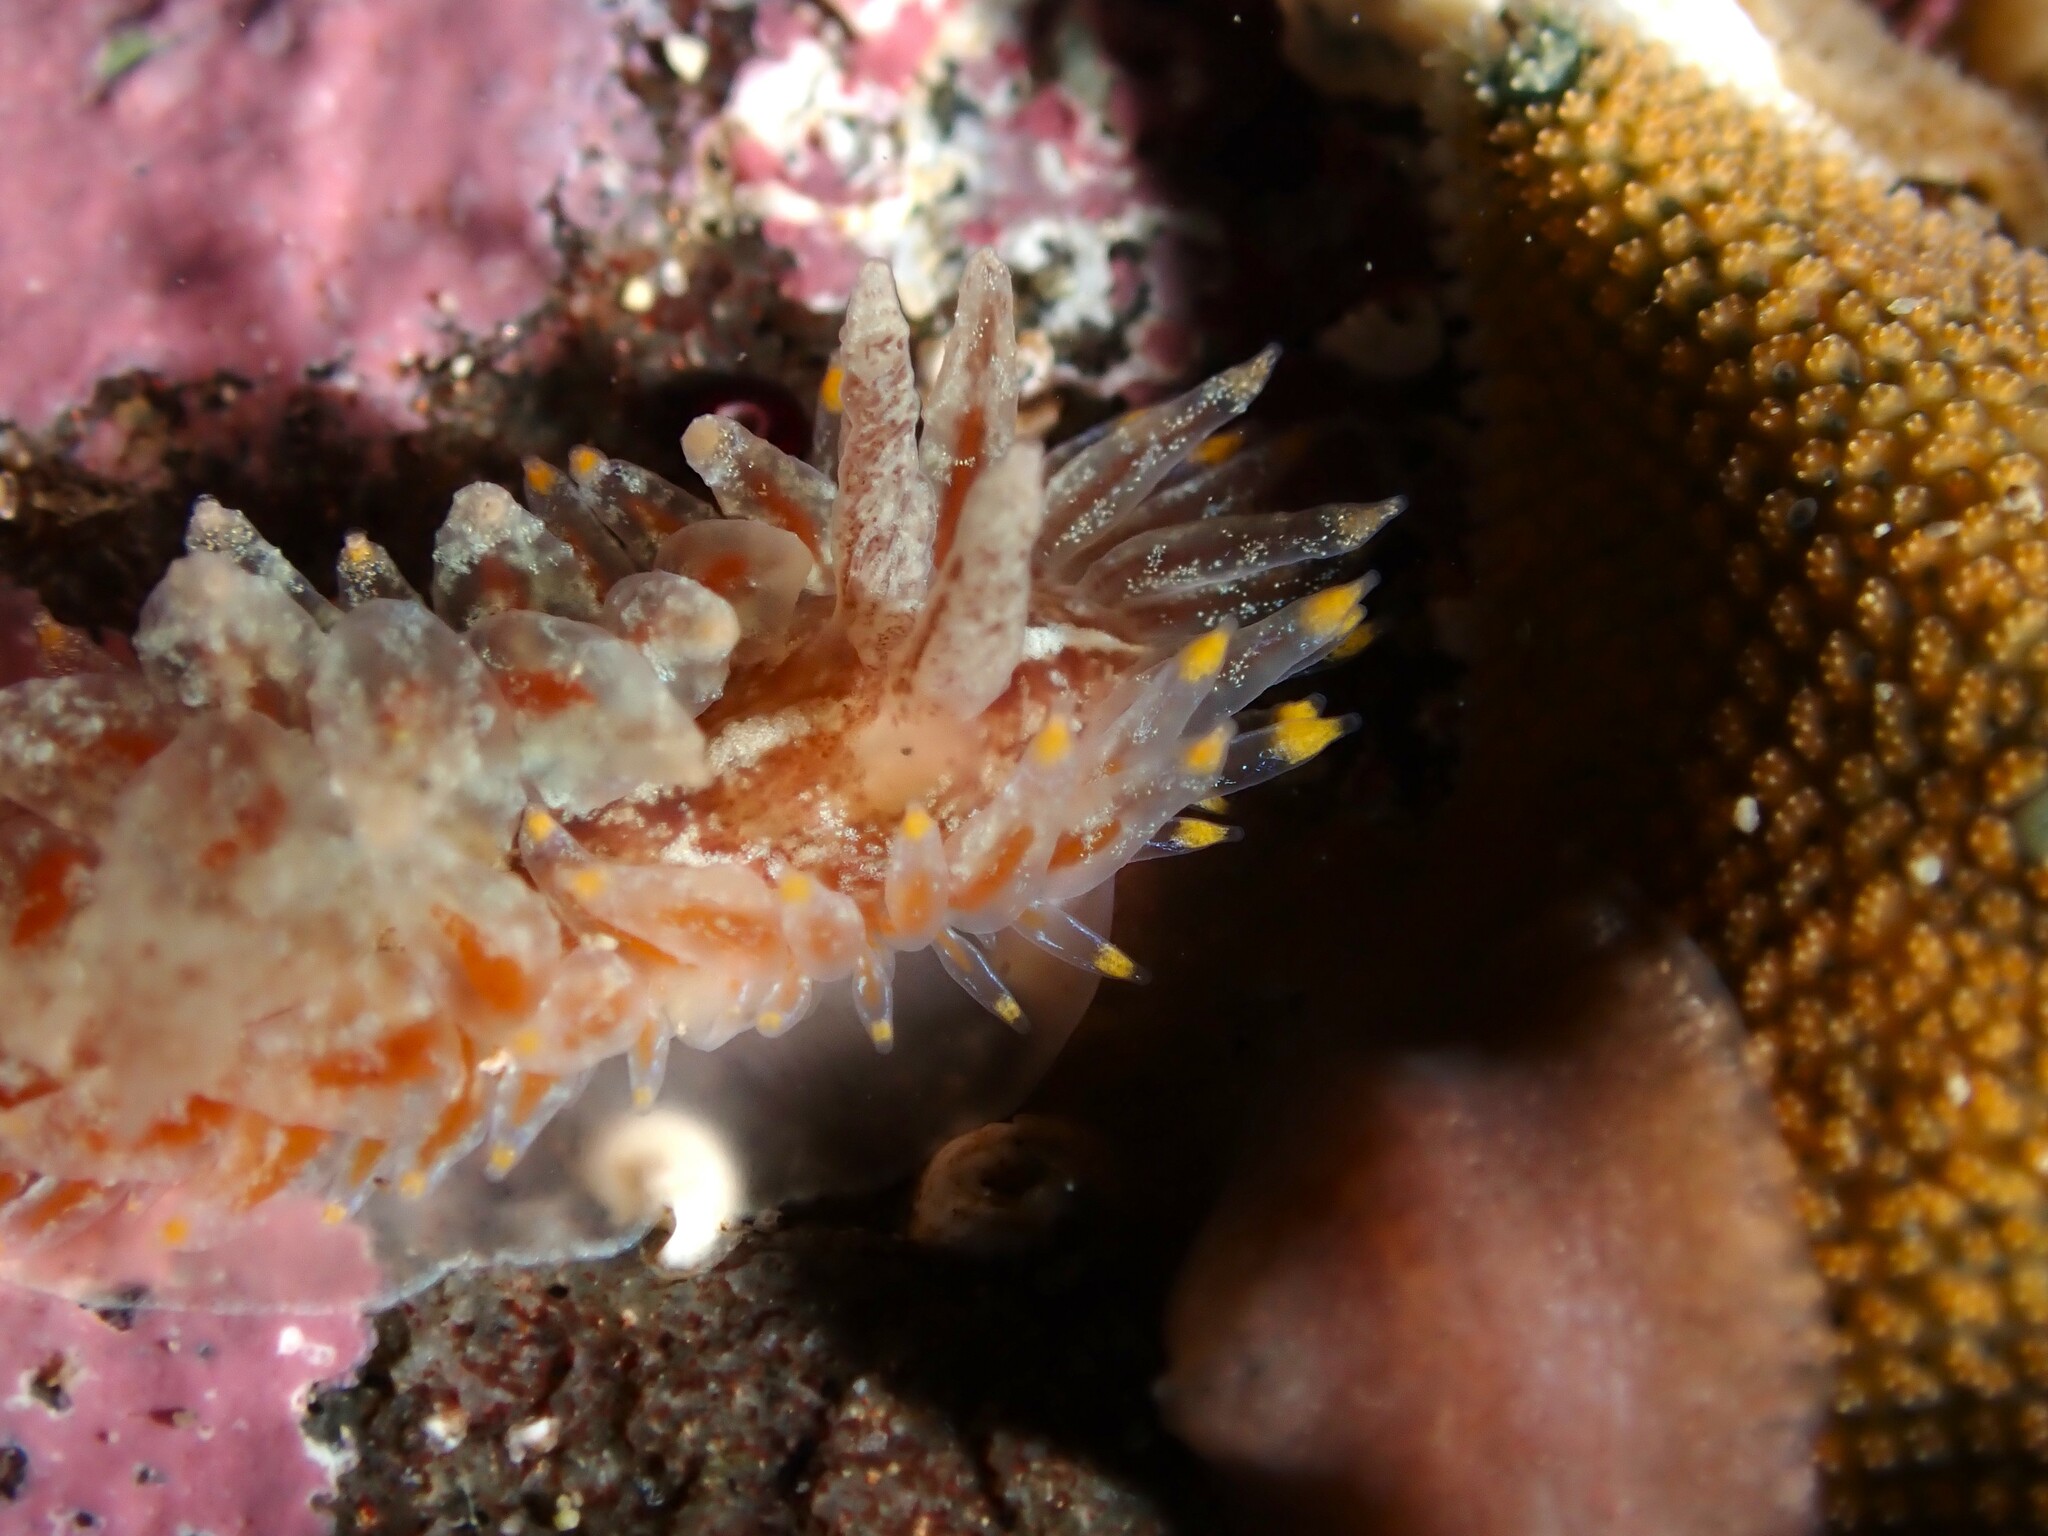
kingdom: Animalia
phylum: Mollusca
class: Gastropoda
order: Nudibranchia
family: Janolidae
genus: Antiopella
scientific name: Antiopella novozealandica
